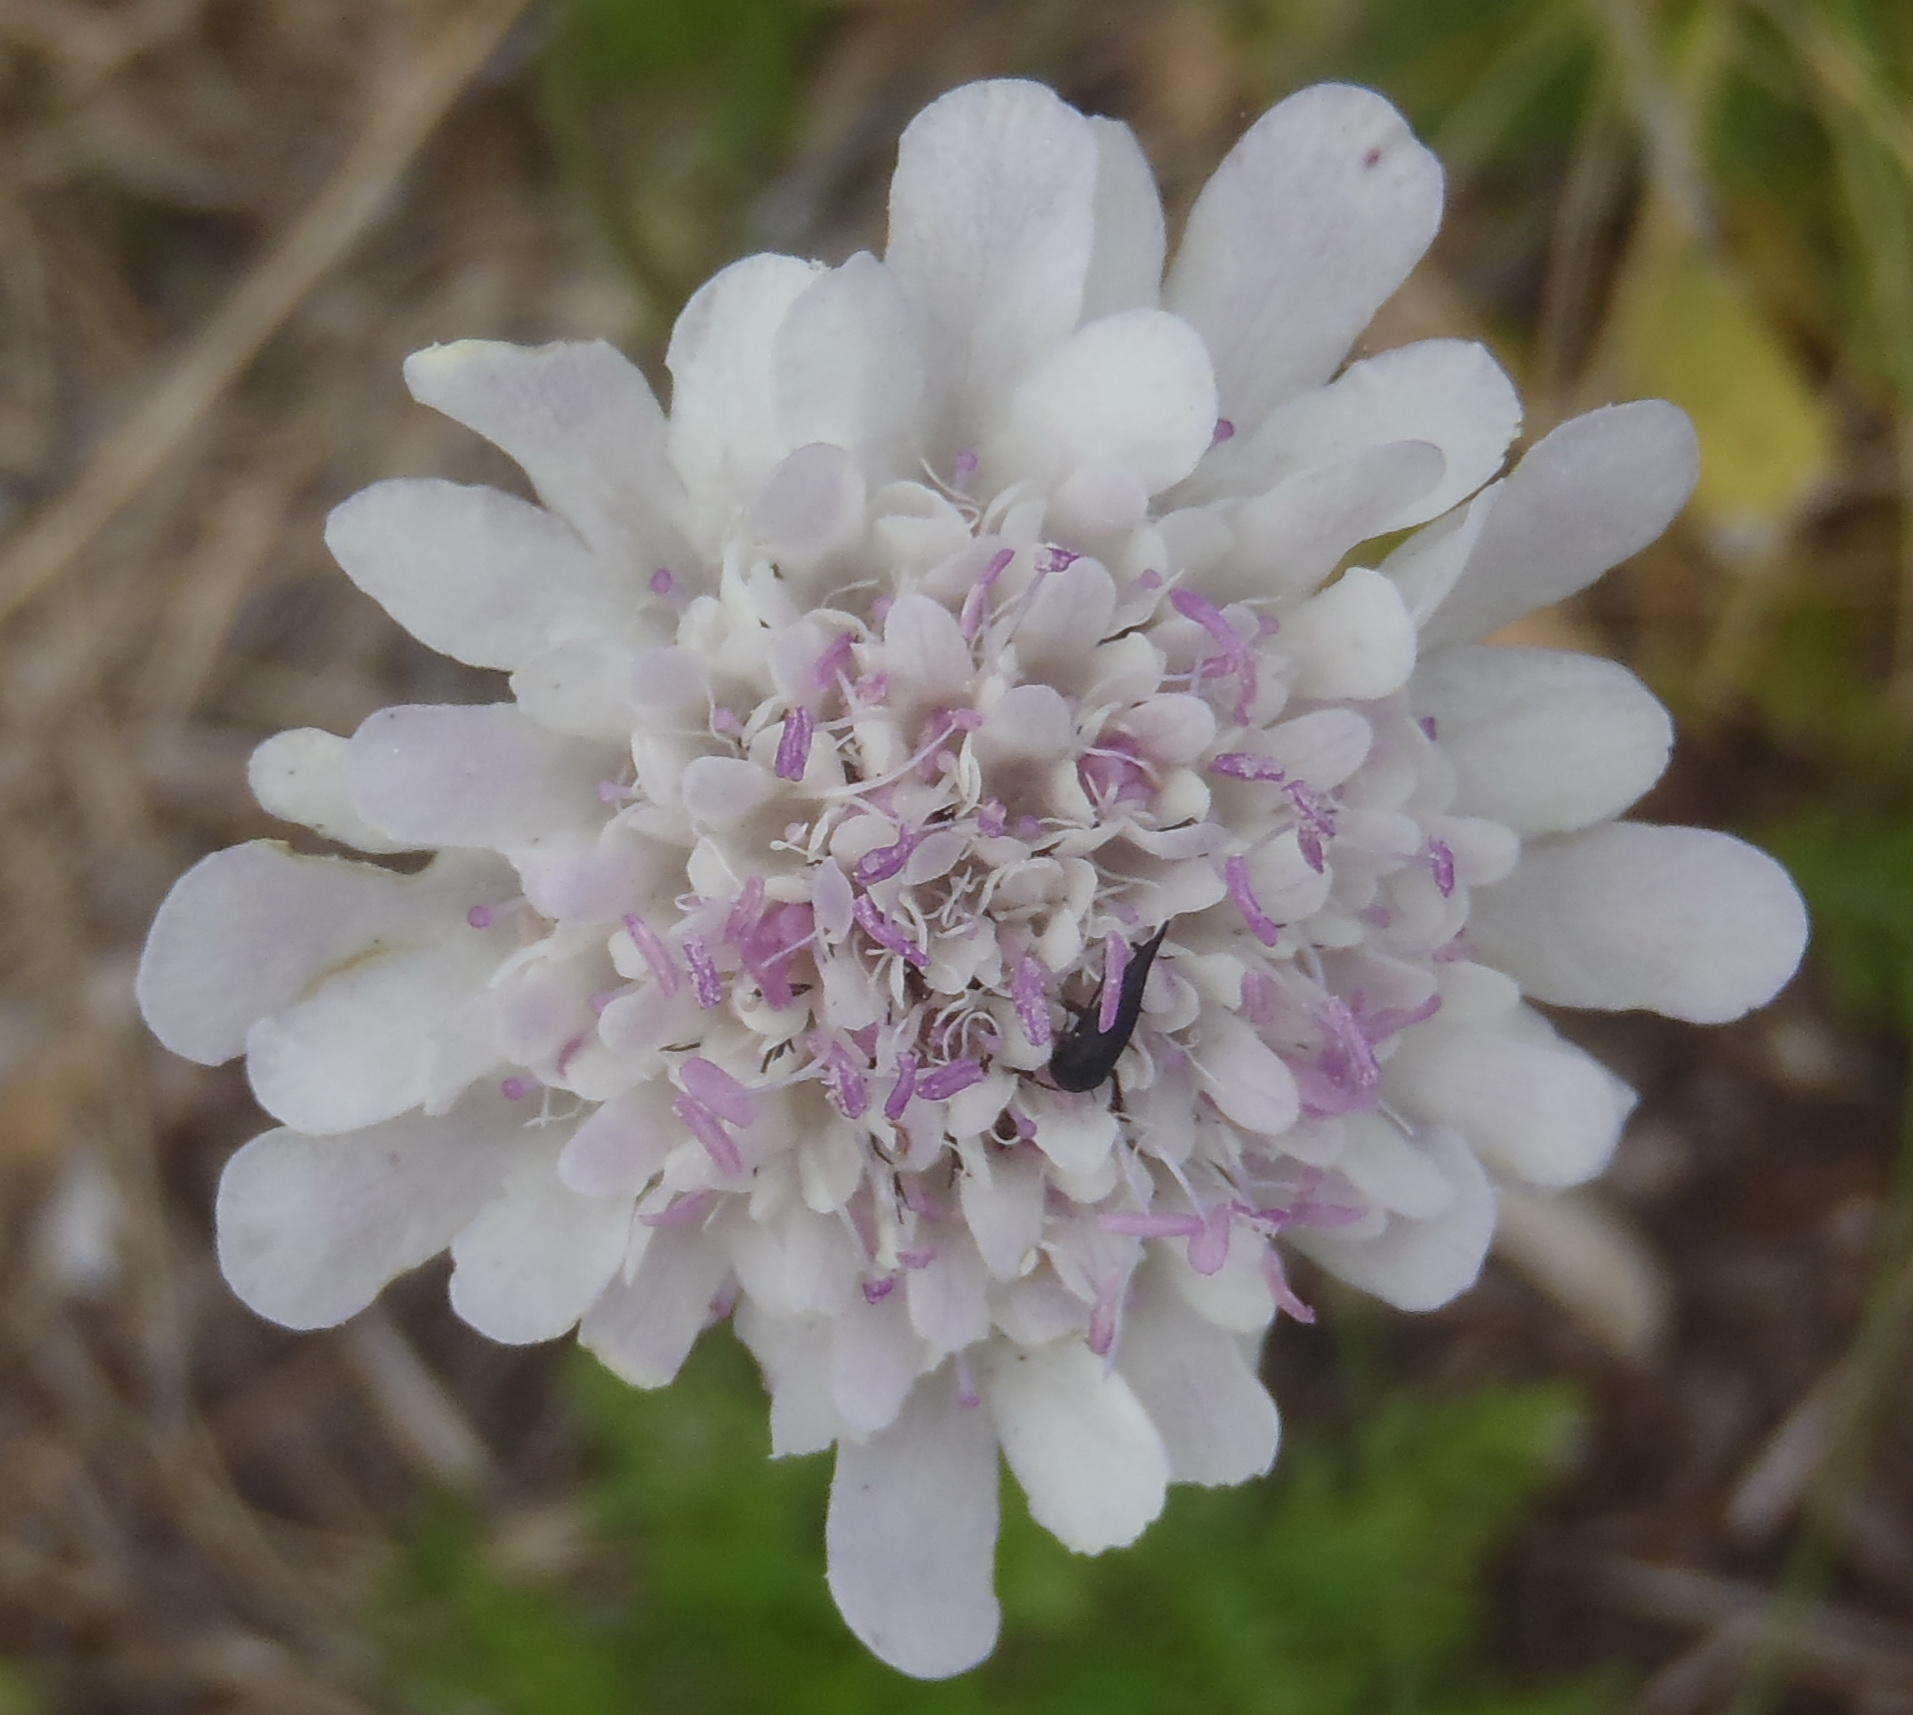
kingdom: Plantae
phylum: Tracheophyta
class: Magnoliopsida
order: Dipsacales
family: Caprifoliaceae
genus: Scabiosa
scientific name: Scabiosa columbaria
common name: Small scabious
